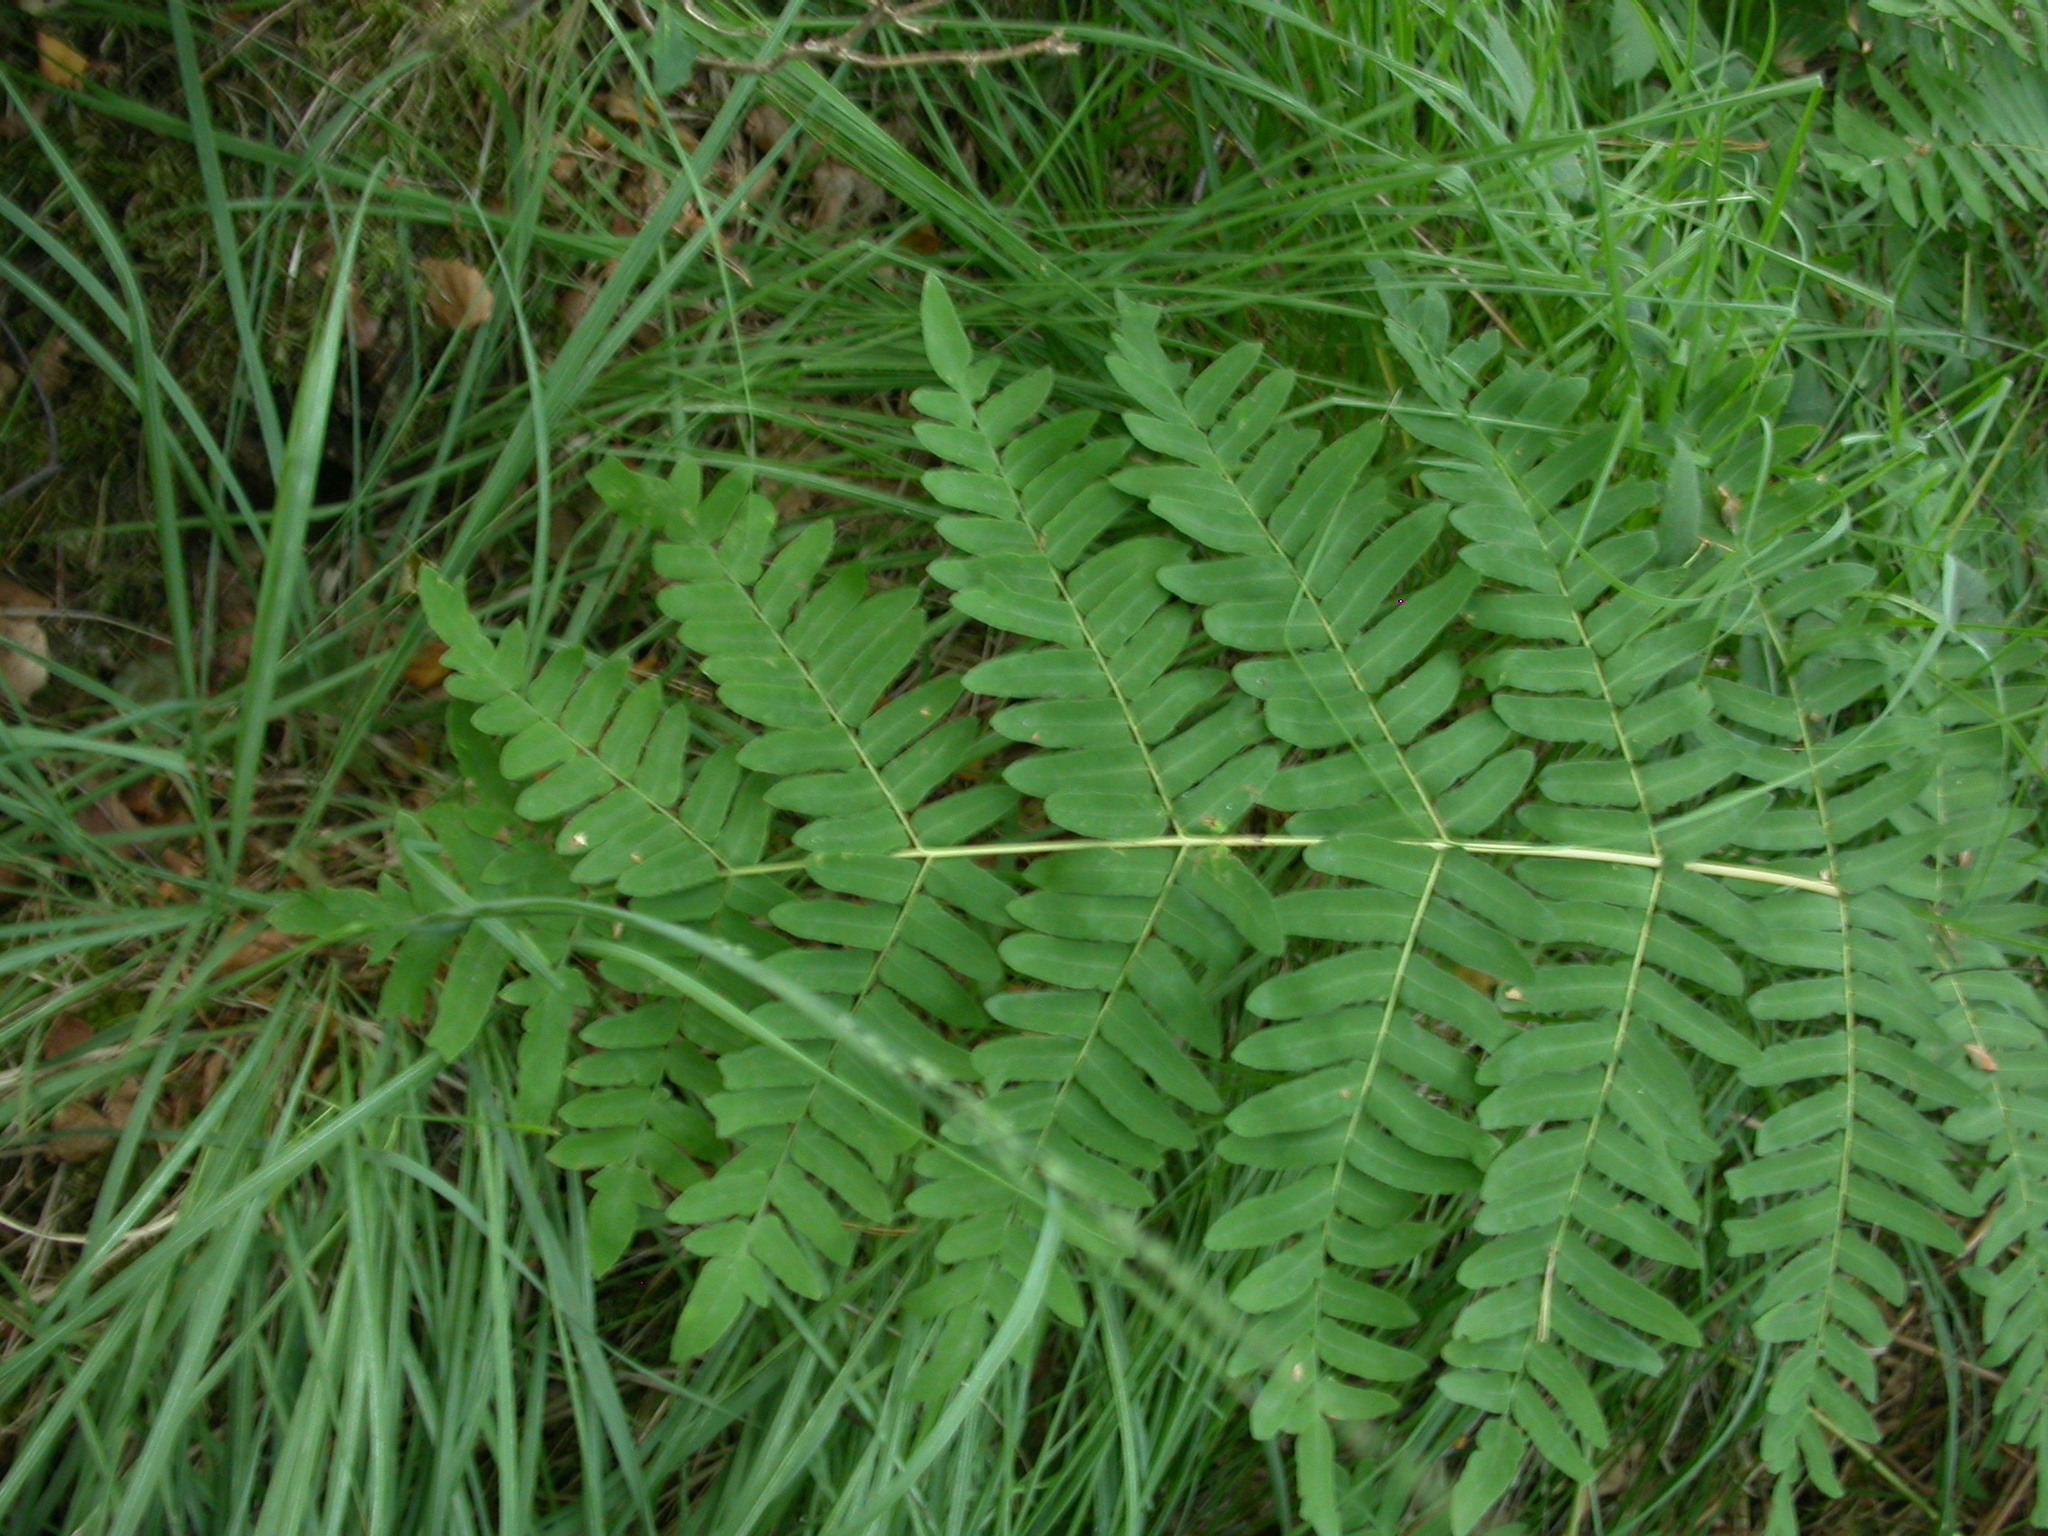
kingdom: Plantae
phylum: Tracheophyta
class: Polypodiopsida
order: Osmundales
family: Osmundaceae
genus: Osmunda
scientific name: Osmunda regalis
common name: Royal fern
